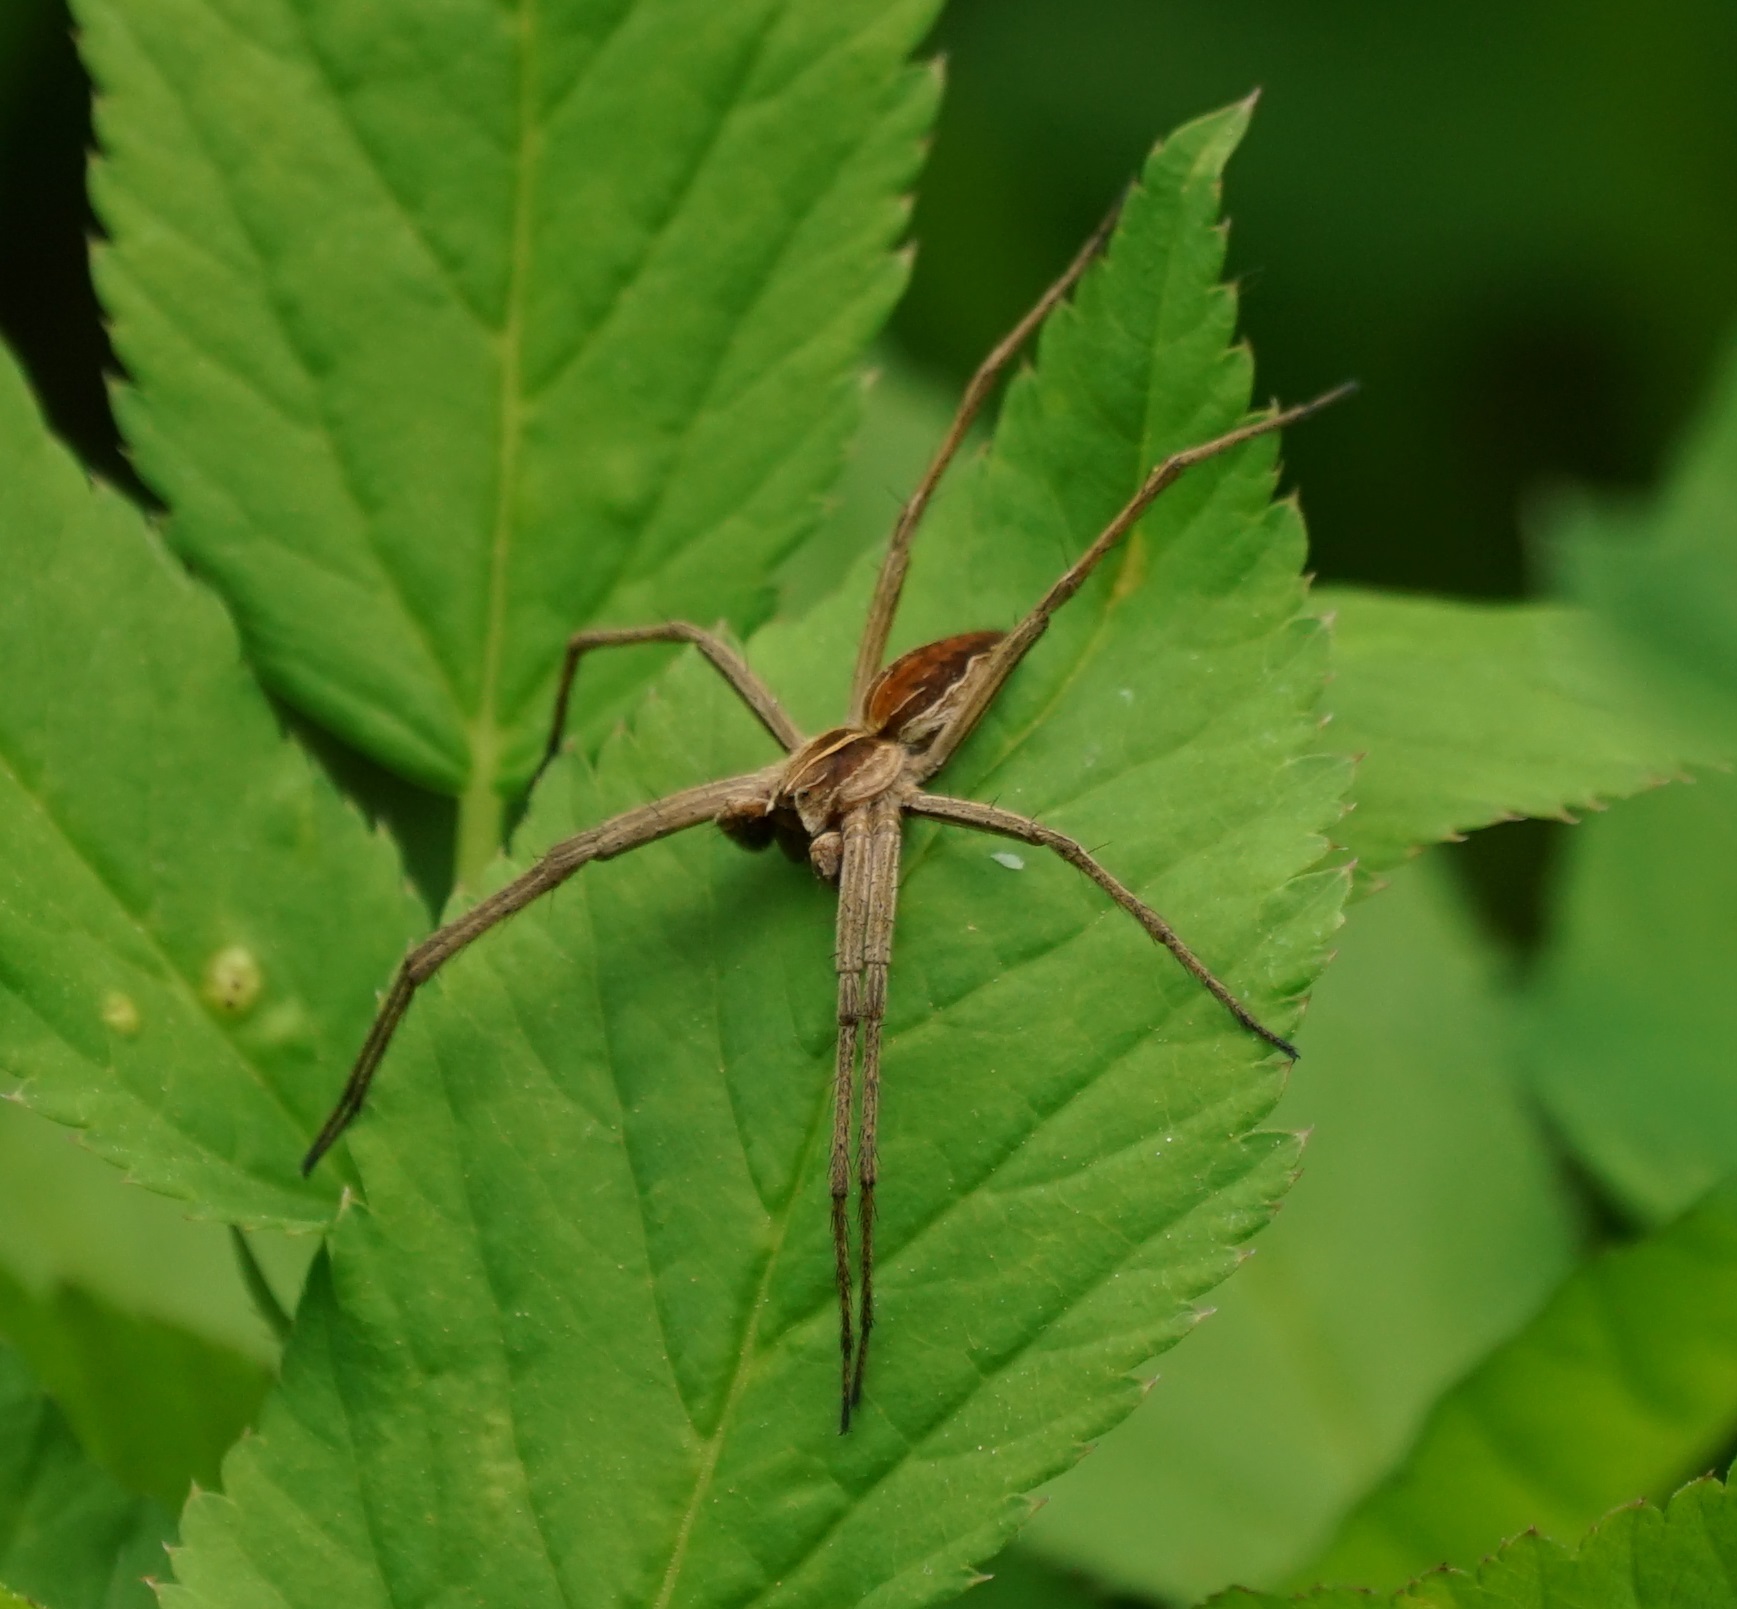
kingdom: Animalia
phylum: Arthropoda
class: Arachnida
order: Araneae
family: Pisauridae
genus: Pisaura
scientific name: Pisaura mirabilis
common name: Tent spider
